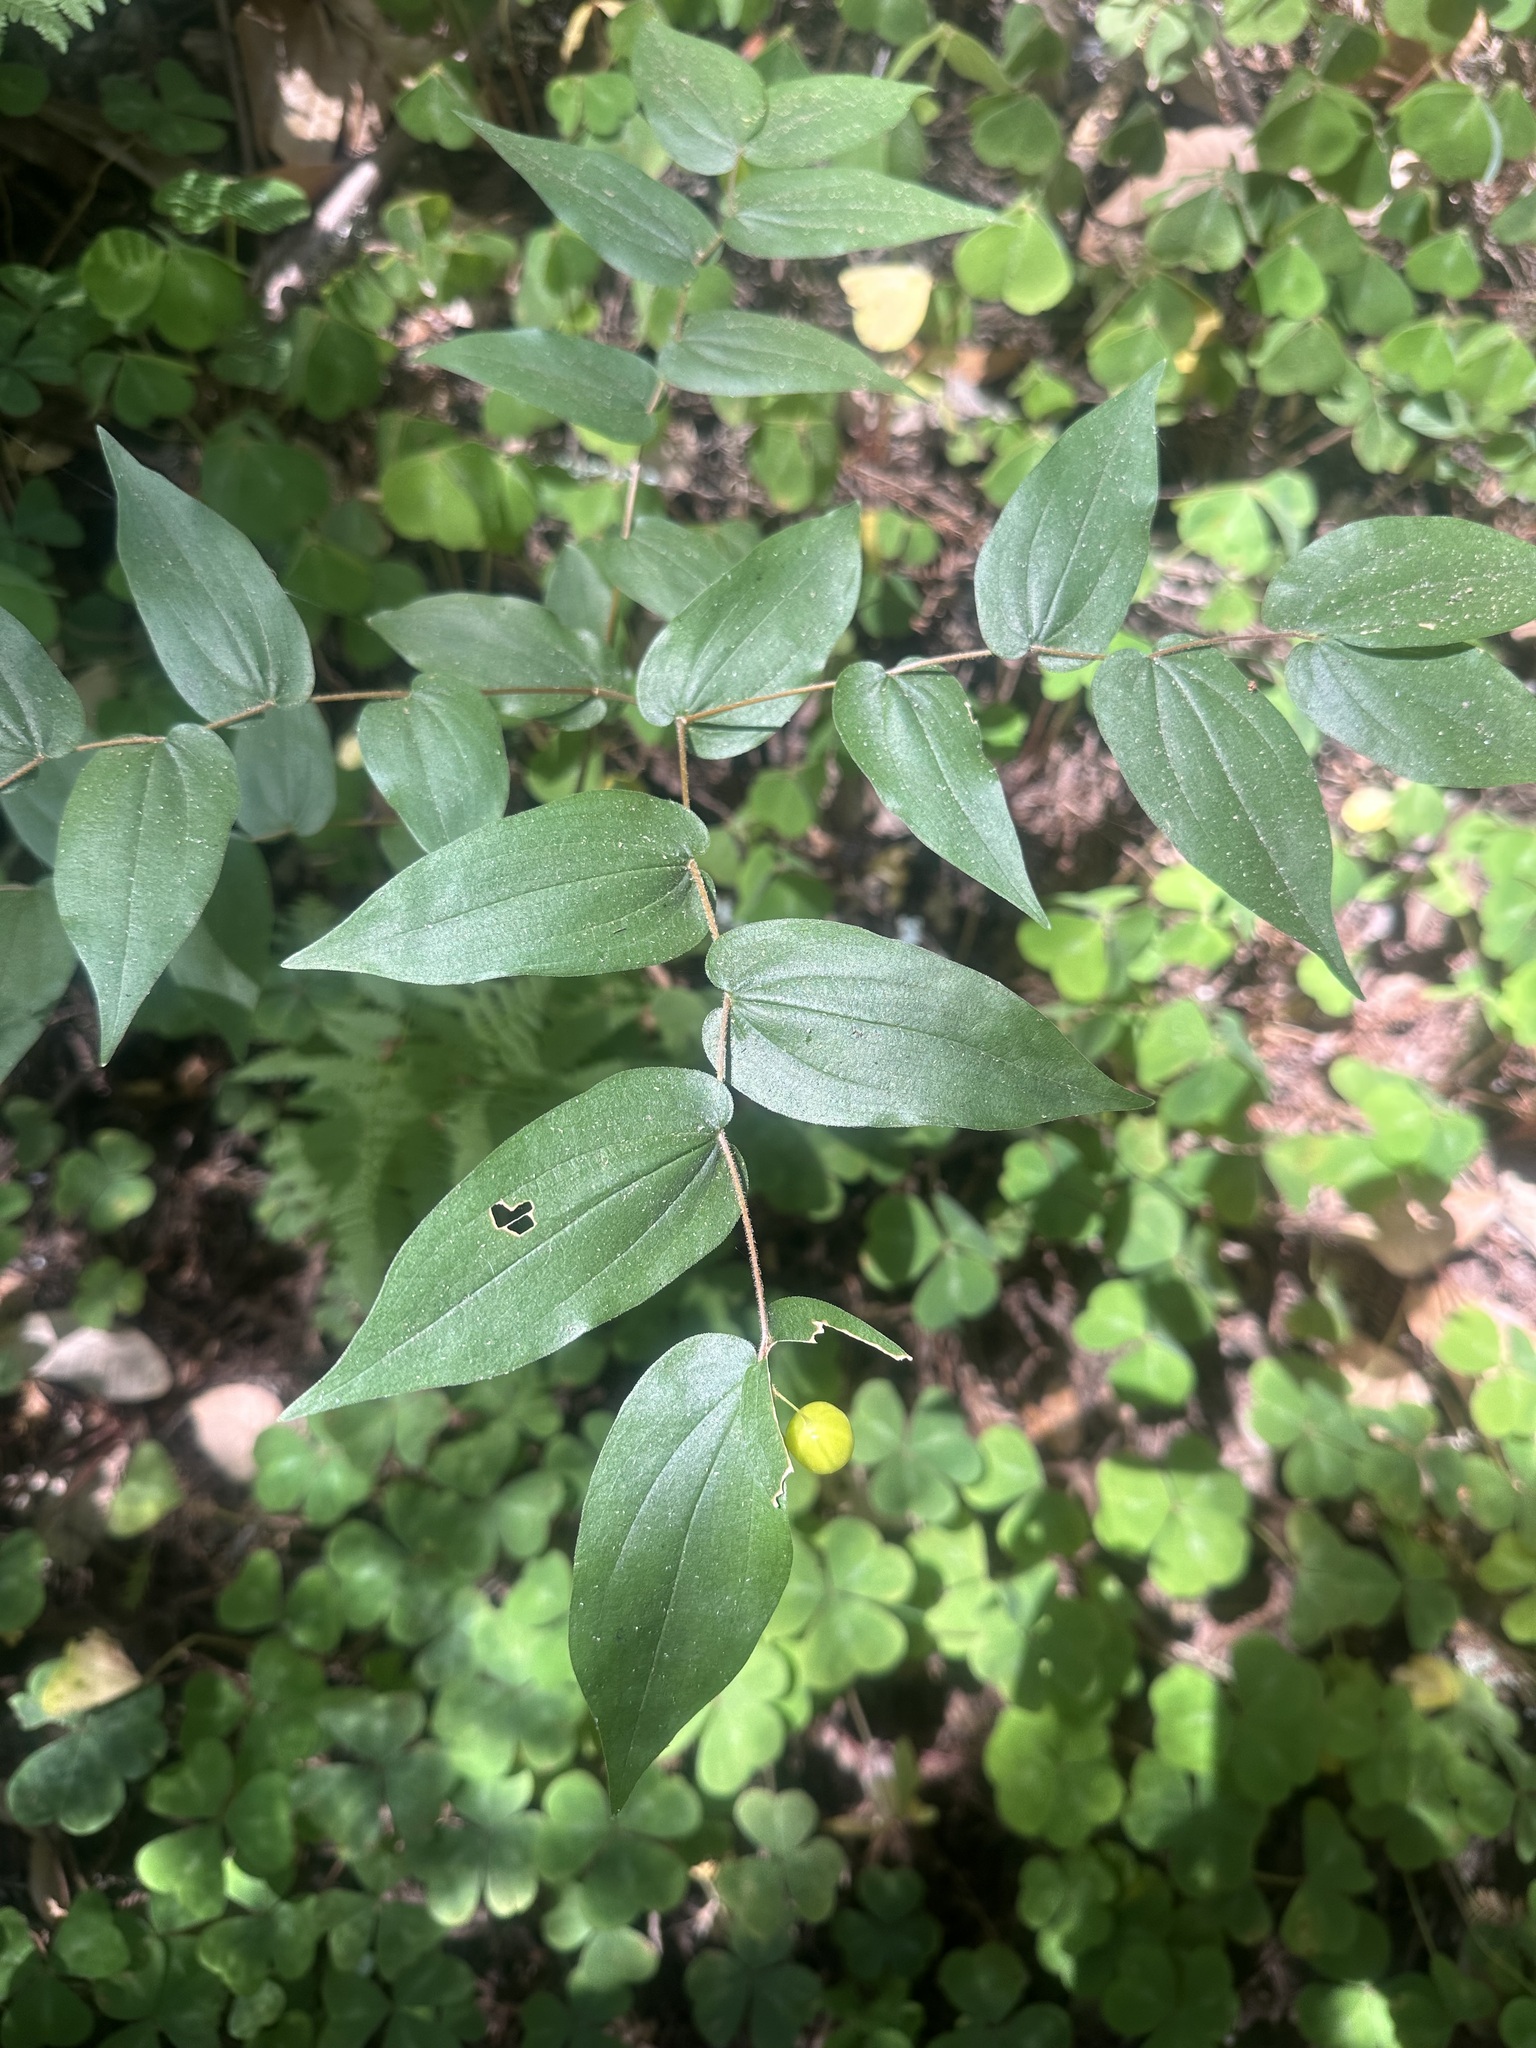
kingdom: Plantae
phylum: Tracheophyta
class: Liliopsida
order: Liliales
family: Liliaceae
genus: Prosartes
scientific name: Prosartes hookeri
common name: Fairy-bells
